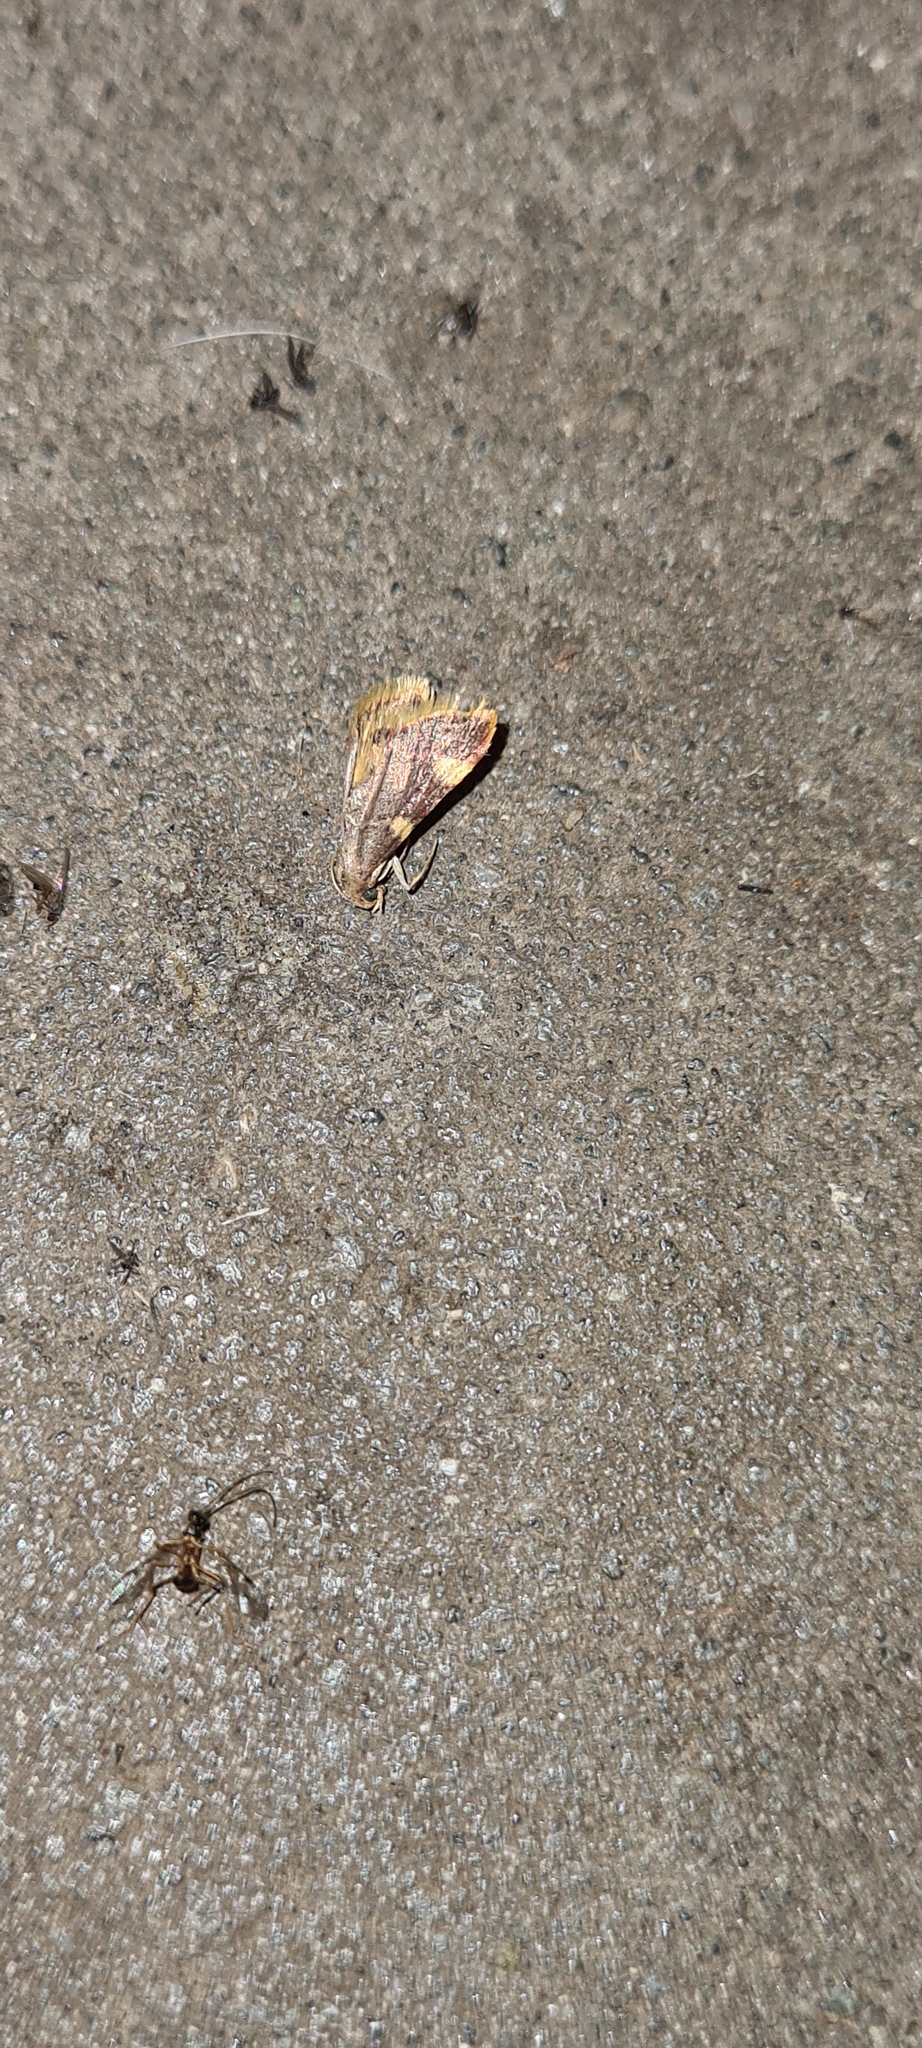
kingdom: Animalia
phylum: Arthropoda
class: Insecta
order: Lepidoptera
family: Pyralidae
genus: Hypsopygia
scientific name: Hypsopygia costalis
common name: Gold triangle
